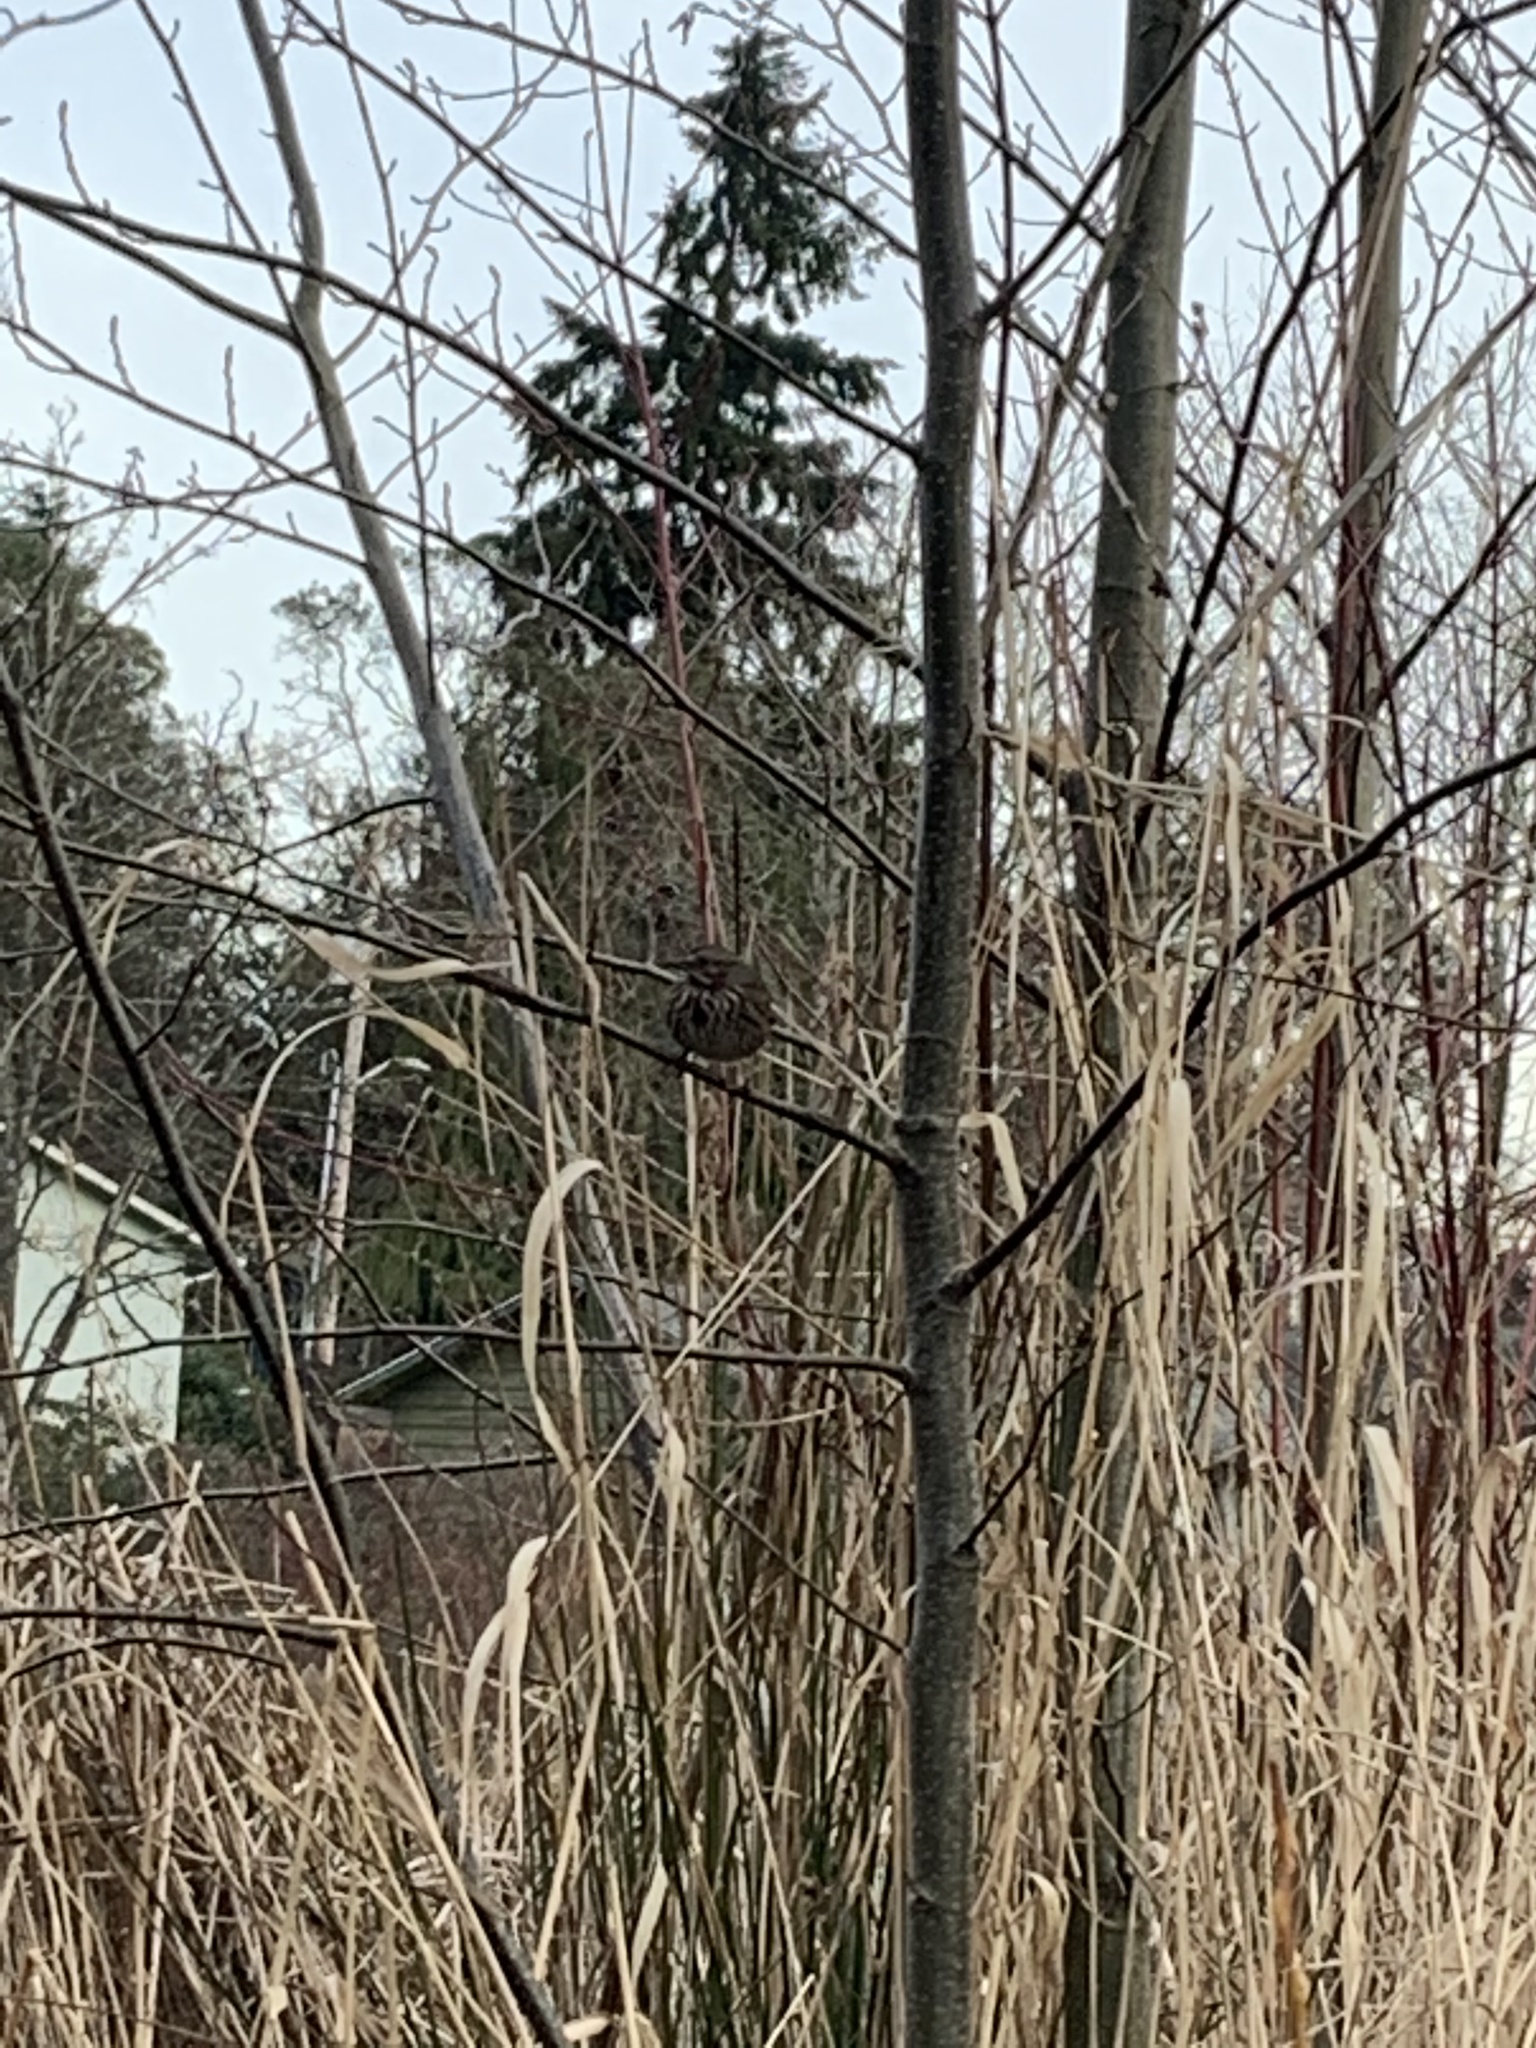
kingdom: Animalia
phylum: Chordata
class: Aves
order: Passeriformes
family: Passerellidae
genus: Melospiza
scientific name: Melospiza melodia
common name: Song sparrow
